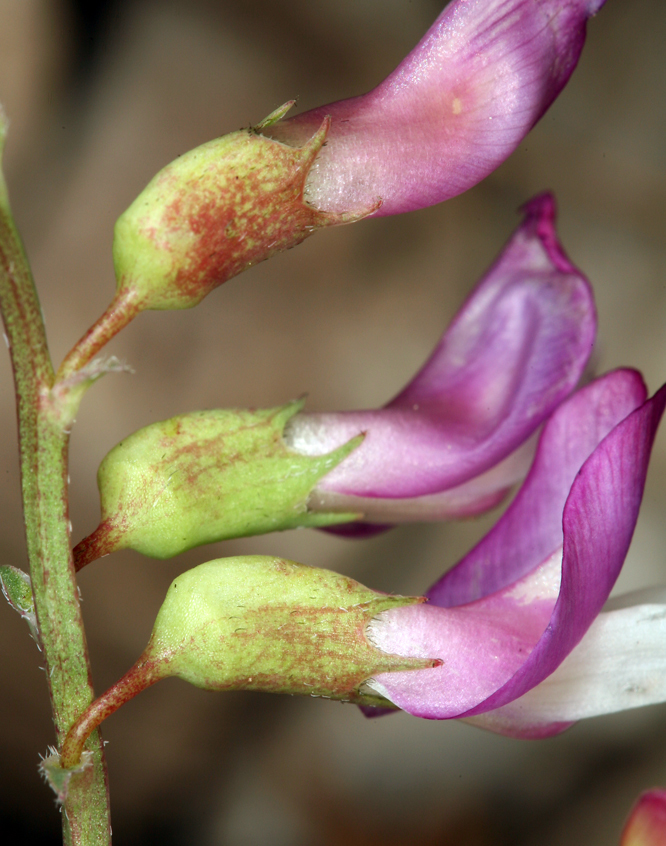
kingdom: Plantae
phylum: Tracheophyta
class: Magnoliopsida
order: Fabales
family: Fabaceae
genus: Astragalus
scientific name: Astragalus oophorus
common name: Egg milkvetch
